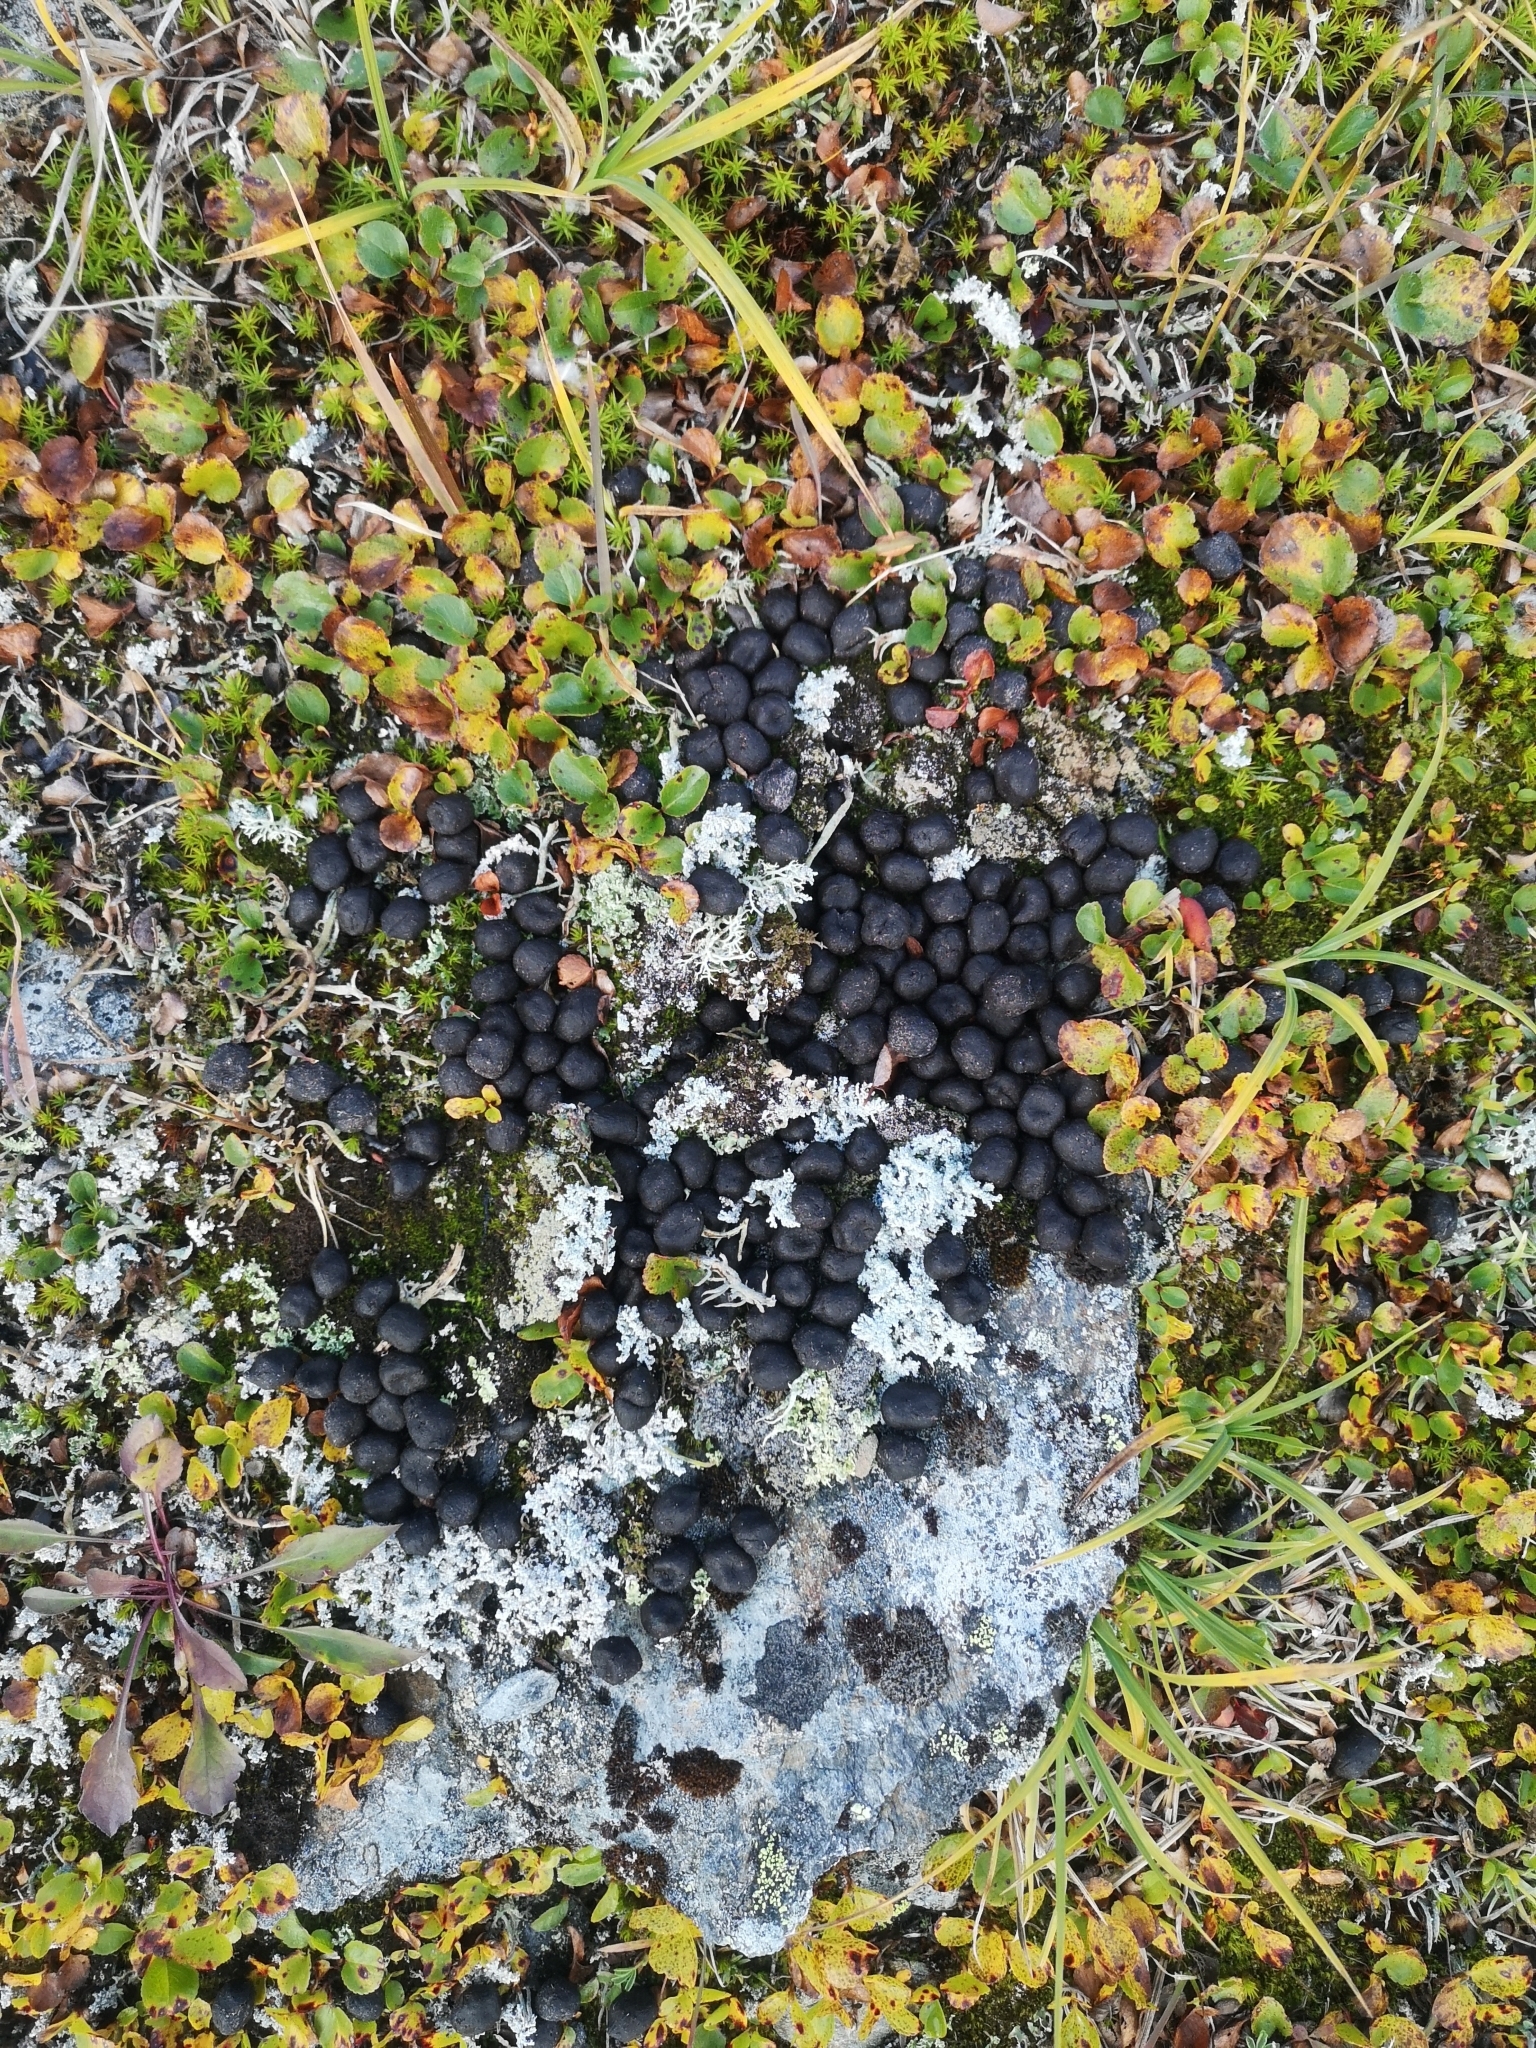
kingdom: Animalia
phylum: Chordata
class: Mammalia
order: Artiodactyla
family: Cervidae
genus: Rangifer
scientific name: Rangifer tarandus
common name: Reindeer
